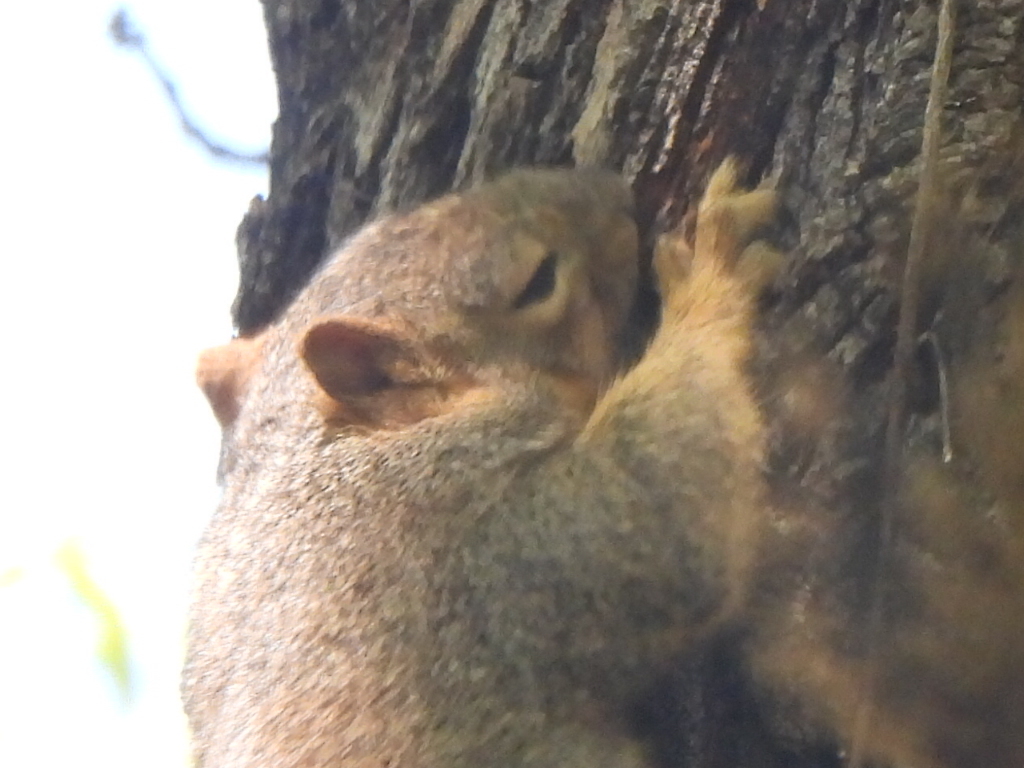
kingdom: Animalia
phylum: Chordata
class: Mammalia
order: Rodentia
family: Sciuridae
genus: Sciurus
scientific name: Sciurus niger
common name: Fox squirrel
